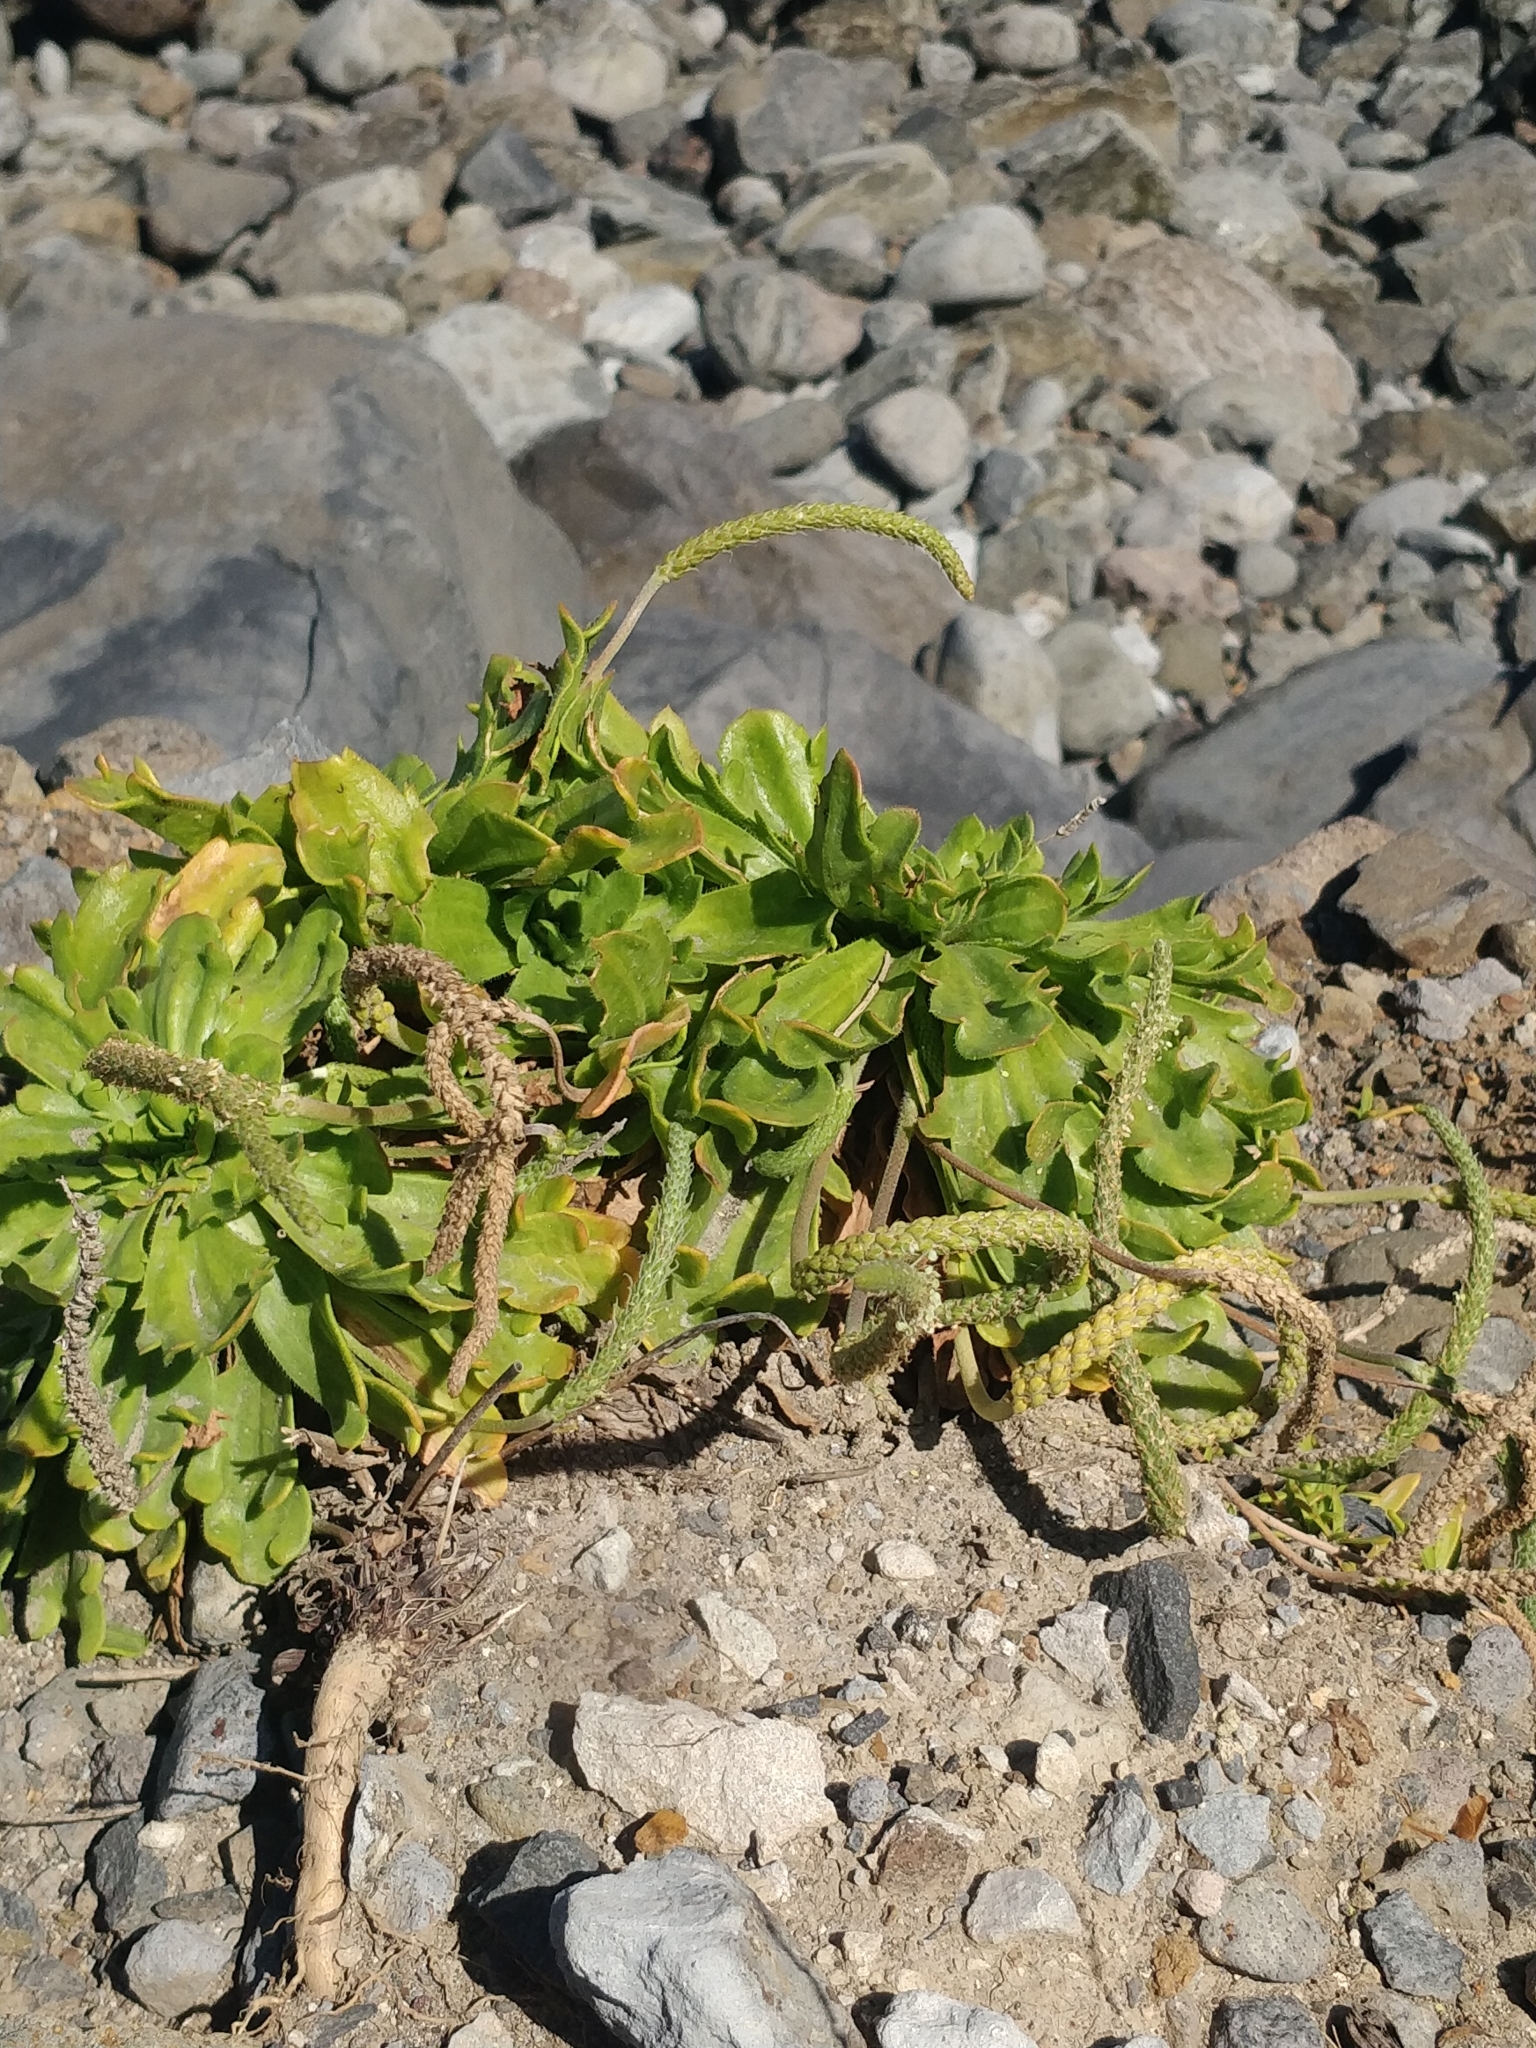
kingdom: Plantae
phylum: Tracheophyta
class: Magnoliopsida
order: Lamiales
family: Plantaginaceae
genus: Plantago
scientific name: Plantago coronopus
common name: Buck's-horn plantain
